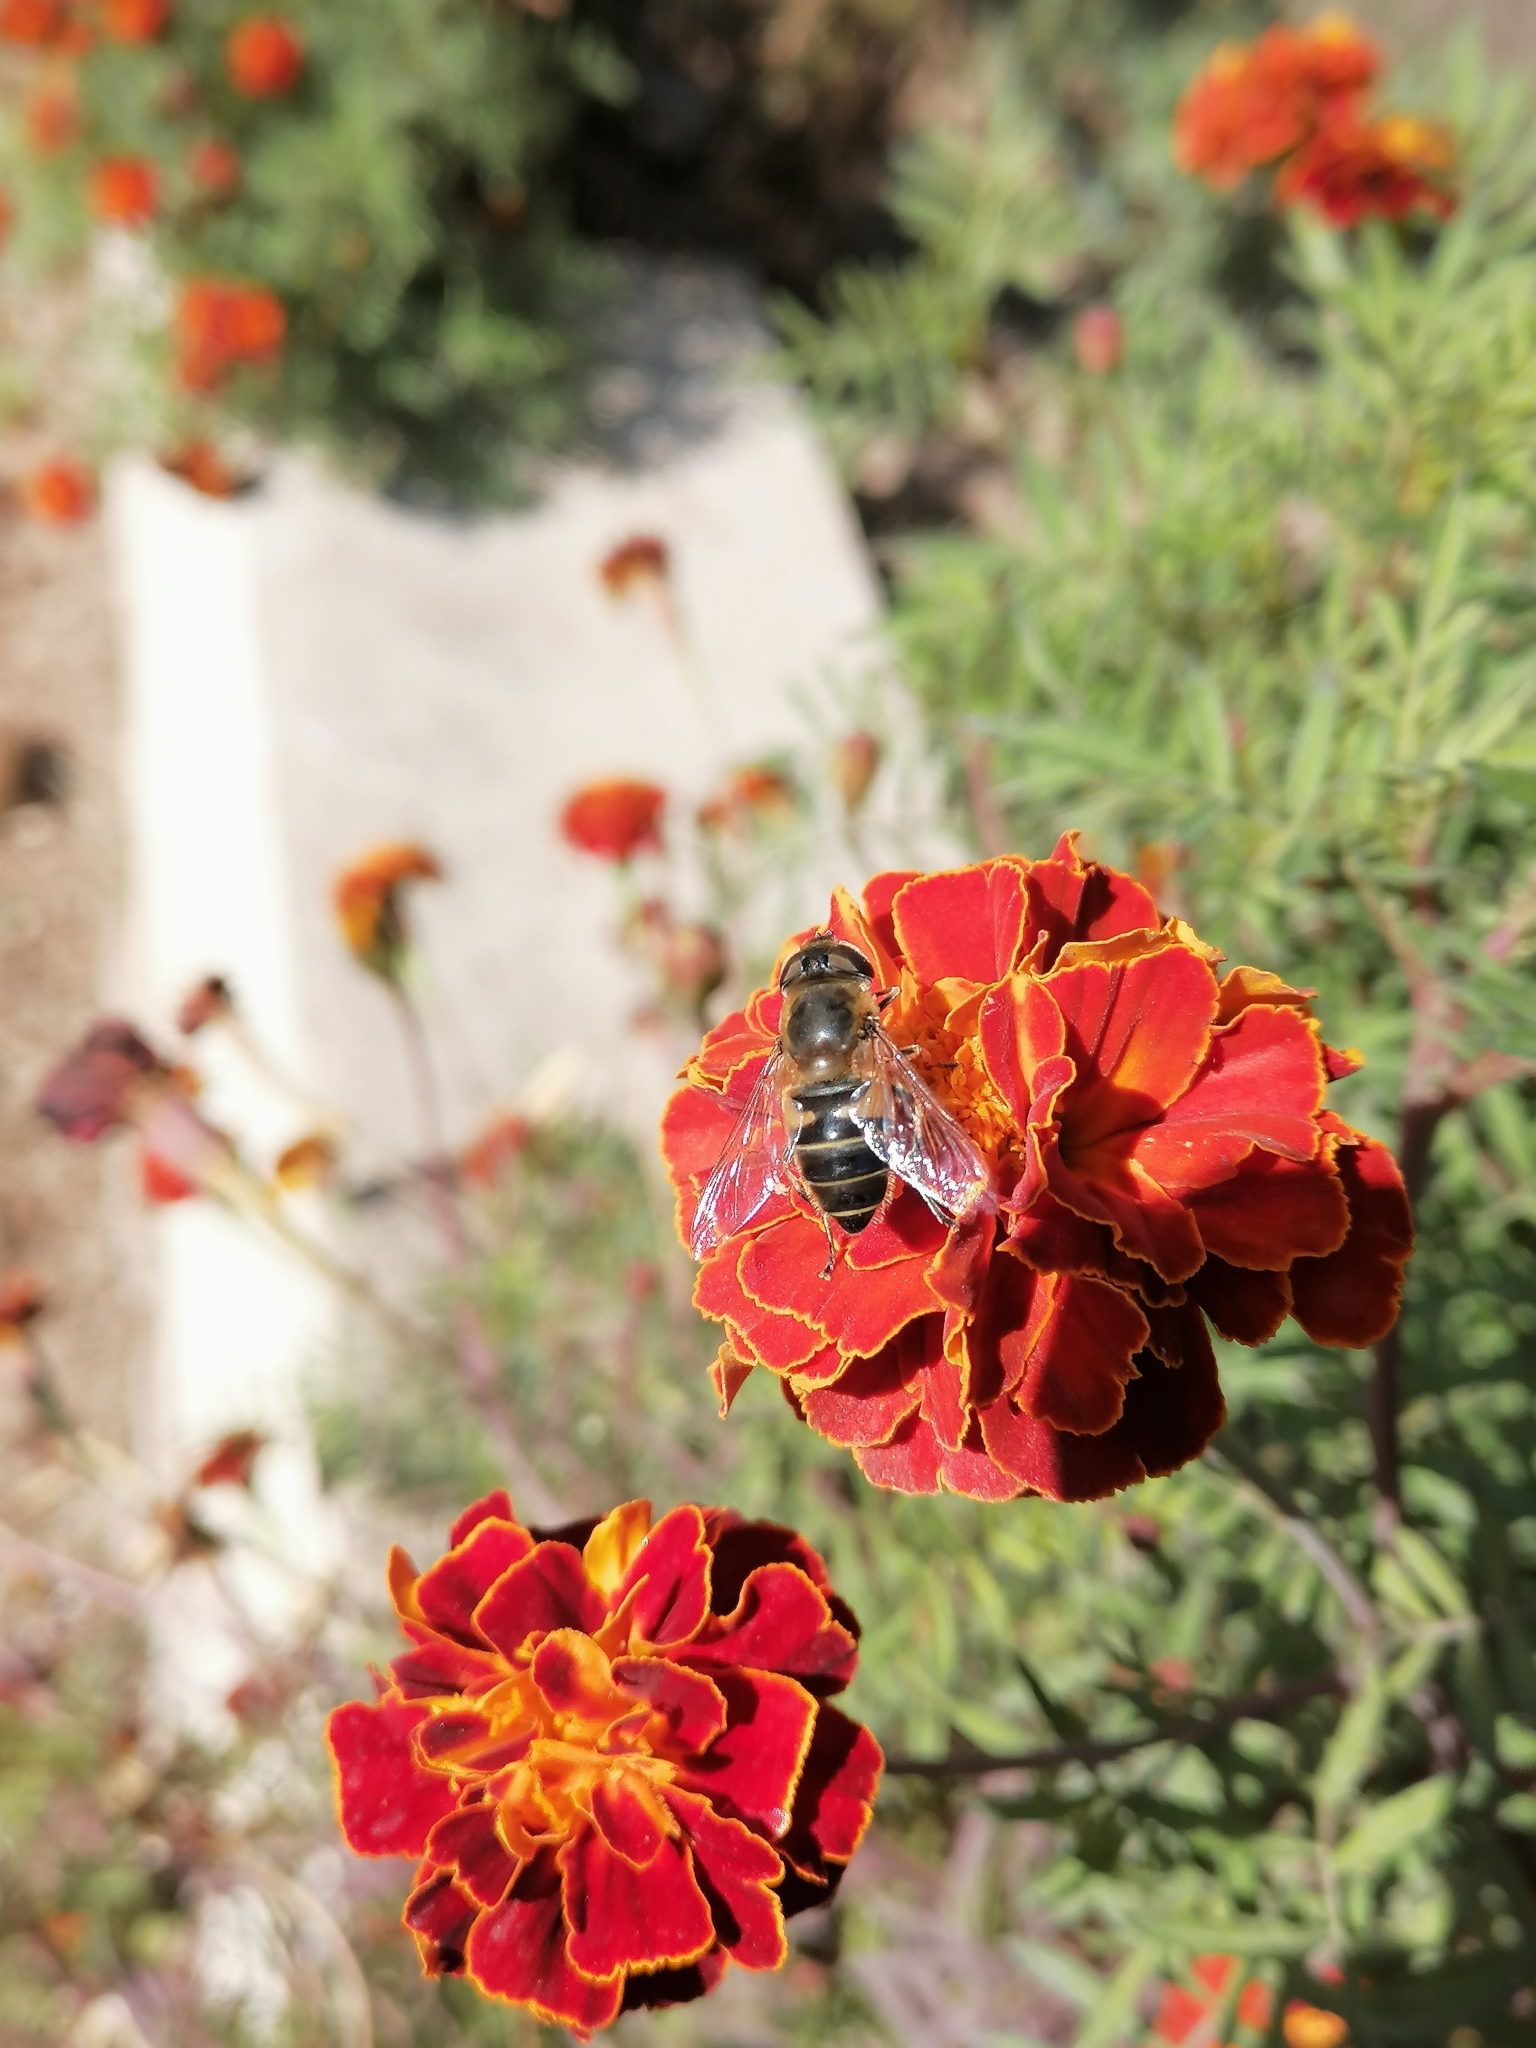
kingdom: Animalia
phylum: Arthropoda
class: Insecta
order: Diptera
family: Syrphidae
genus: Eristalis
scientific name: Eristalis tenax
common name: Drone fly
